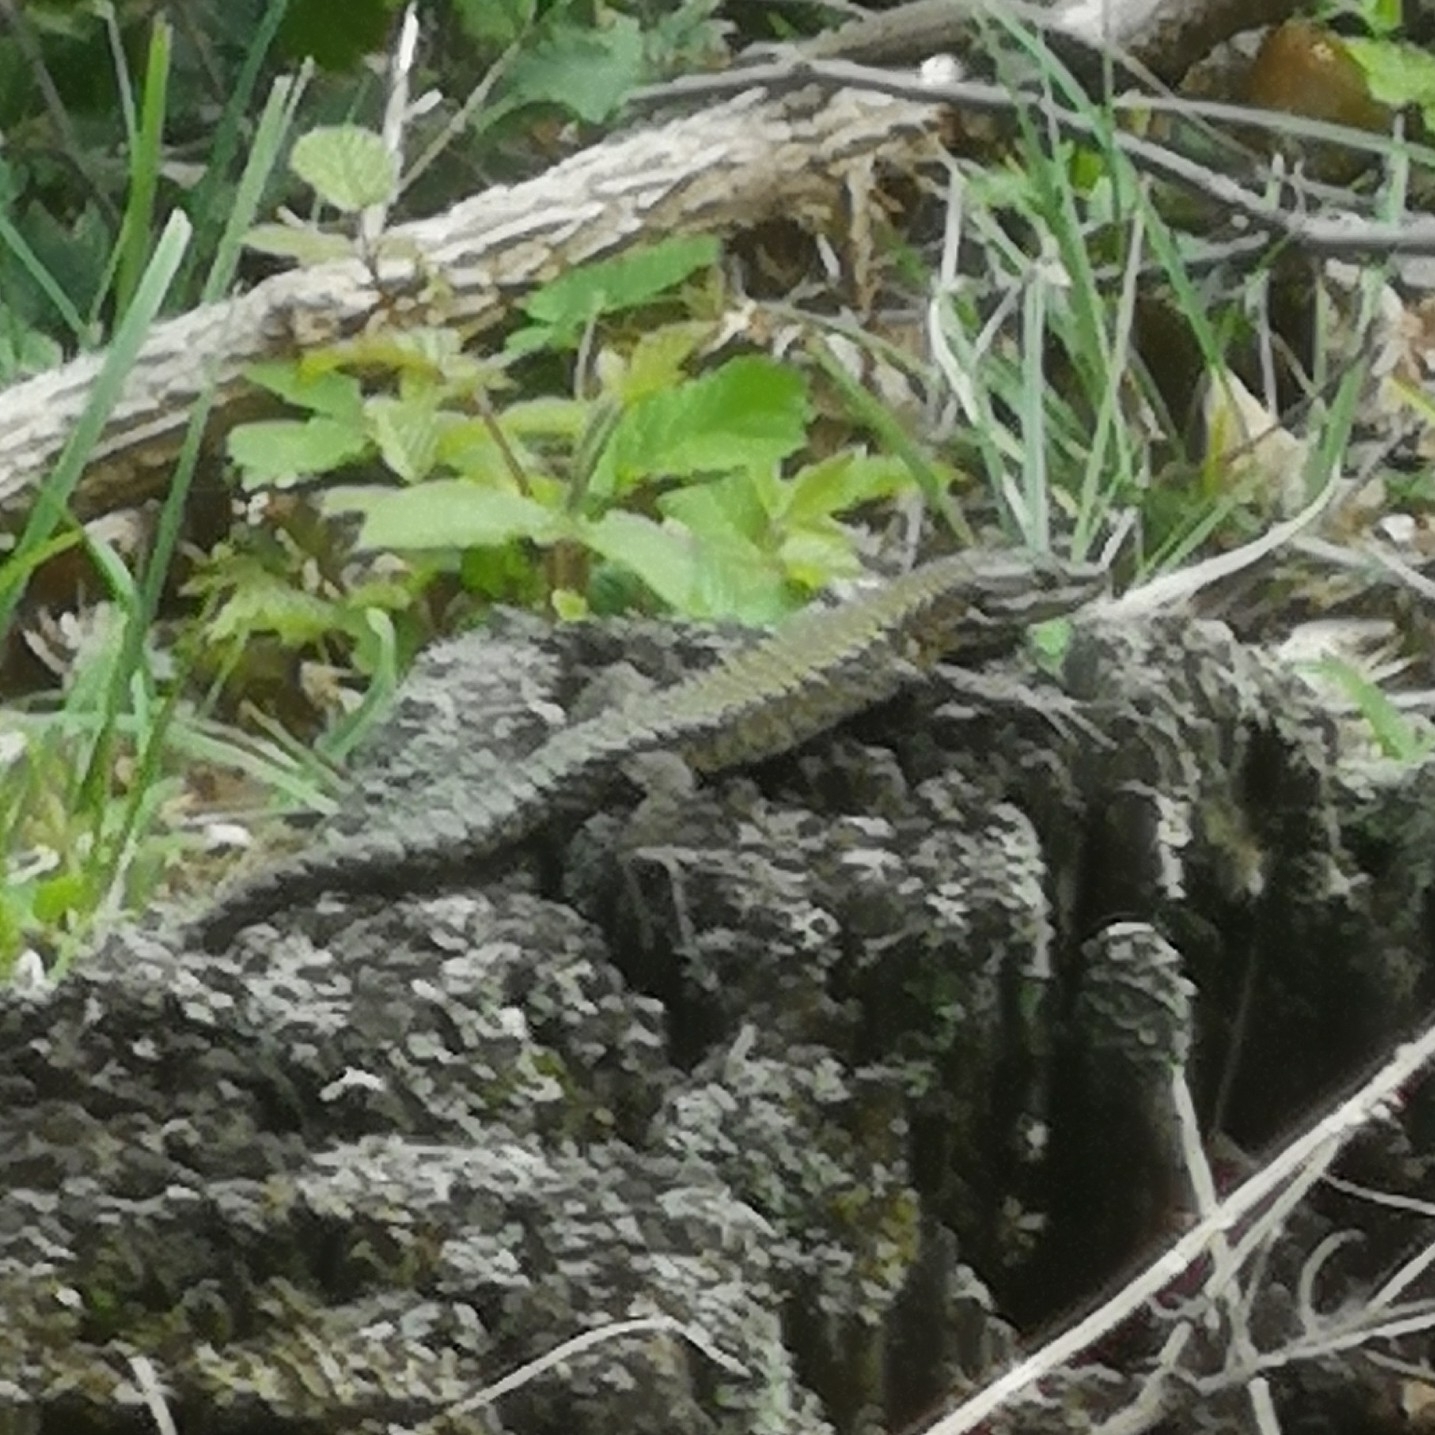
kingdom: Animalia
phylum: Chordata
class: Squamata
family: Lacertidae
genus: Podarcis
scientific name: Podarcis muralis
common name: Common wall lizard
